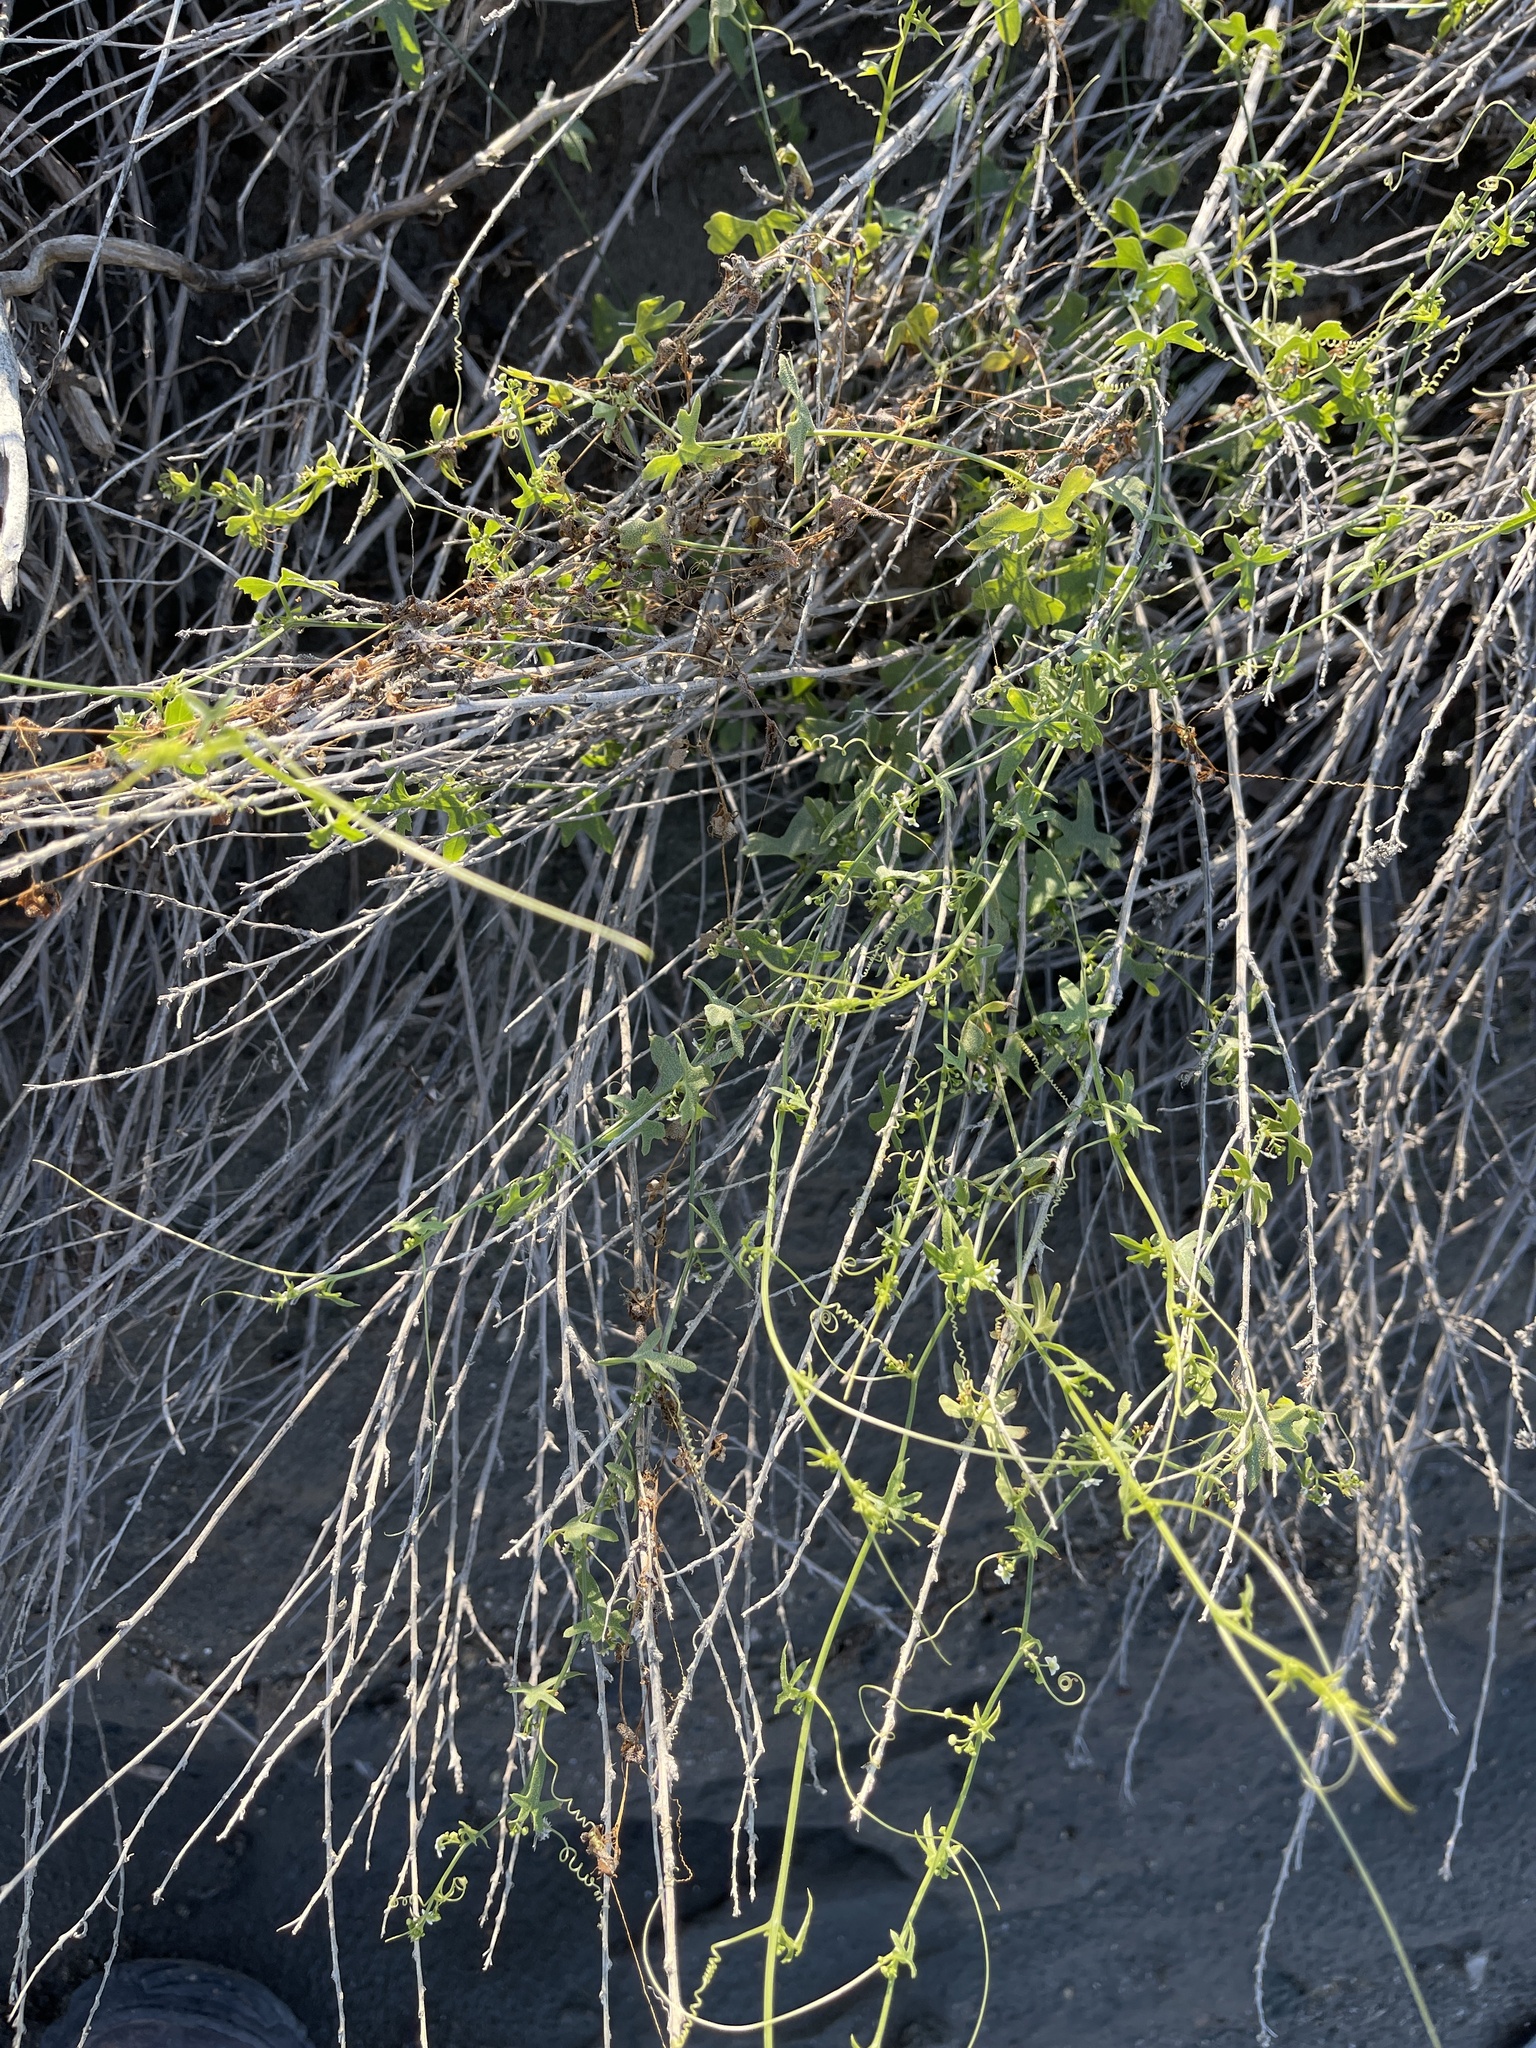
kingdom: Plantae
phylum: Tracheophyta
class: Magnoliopsida
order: Cucurbitales
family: Cucurbitaceae
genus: Echinopepon
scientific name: Echinopepon bigelovii
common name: Desert starvine
